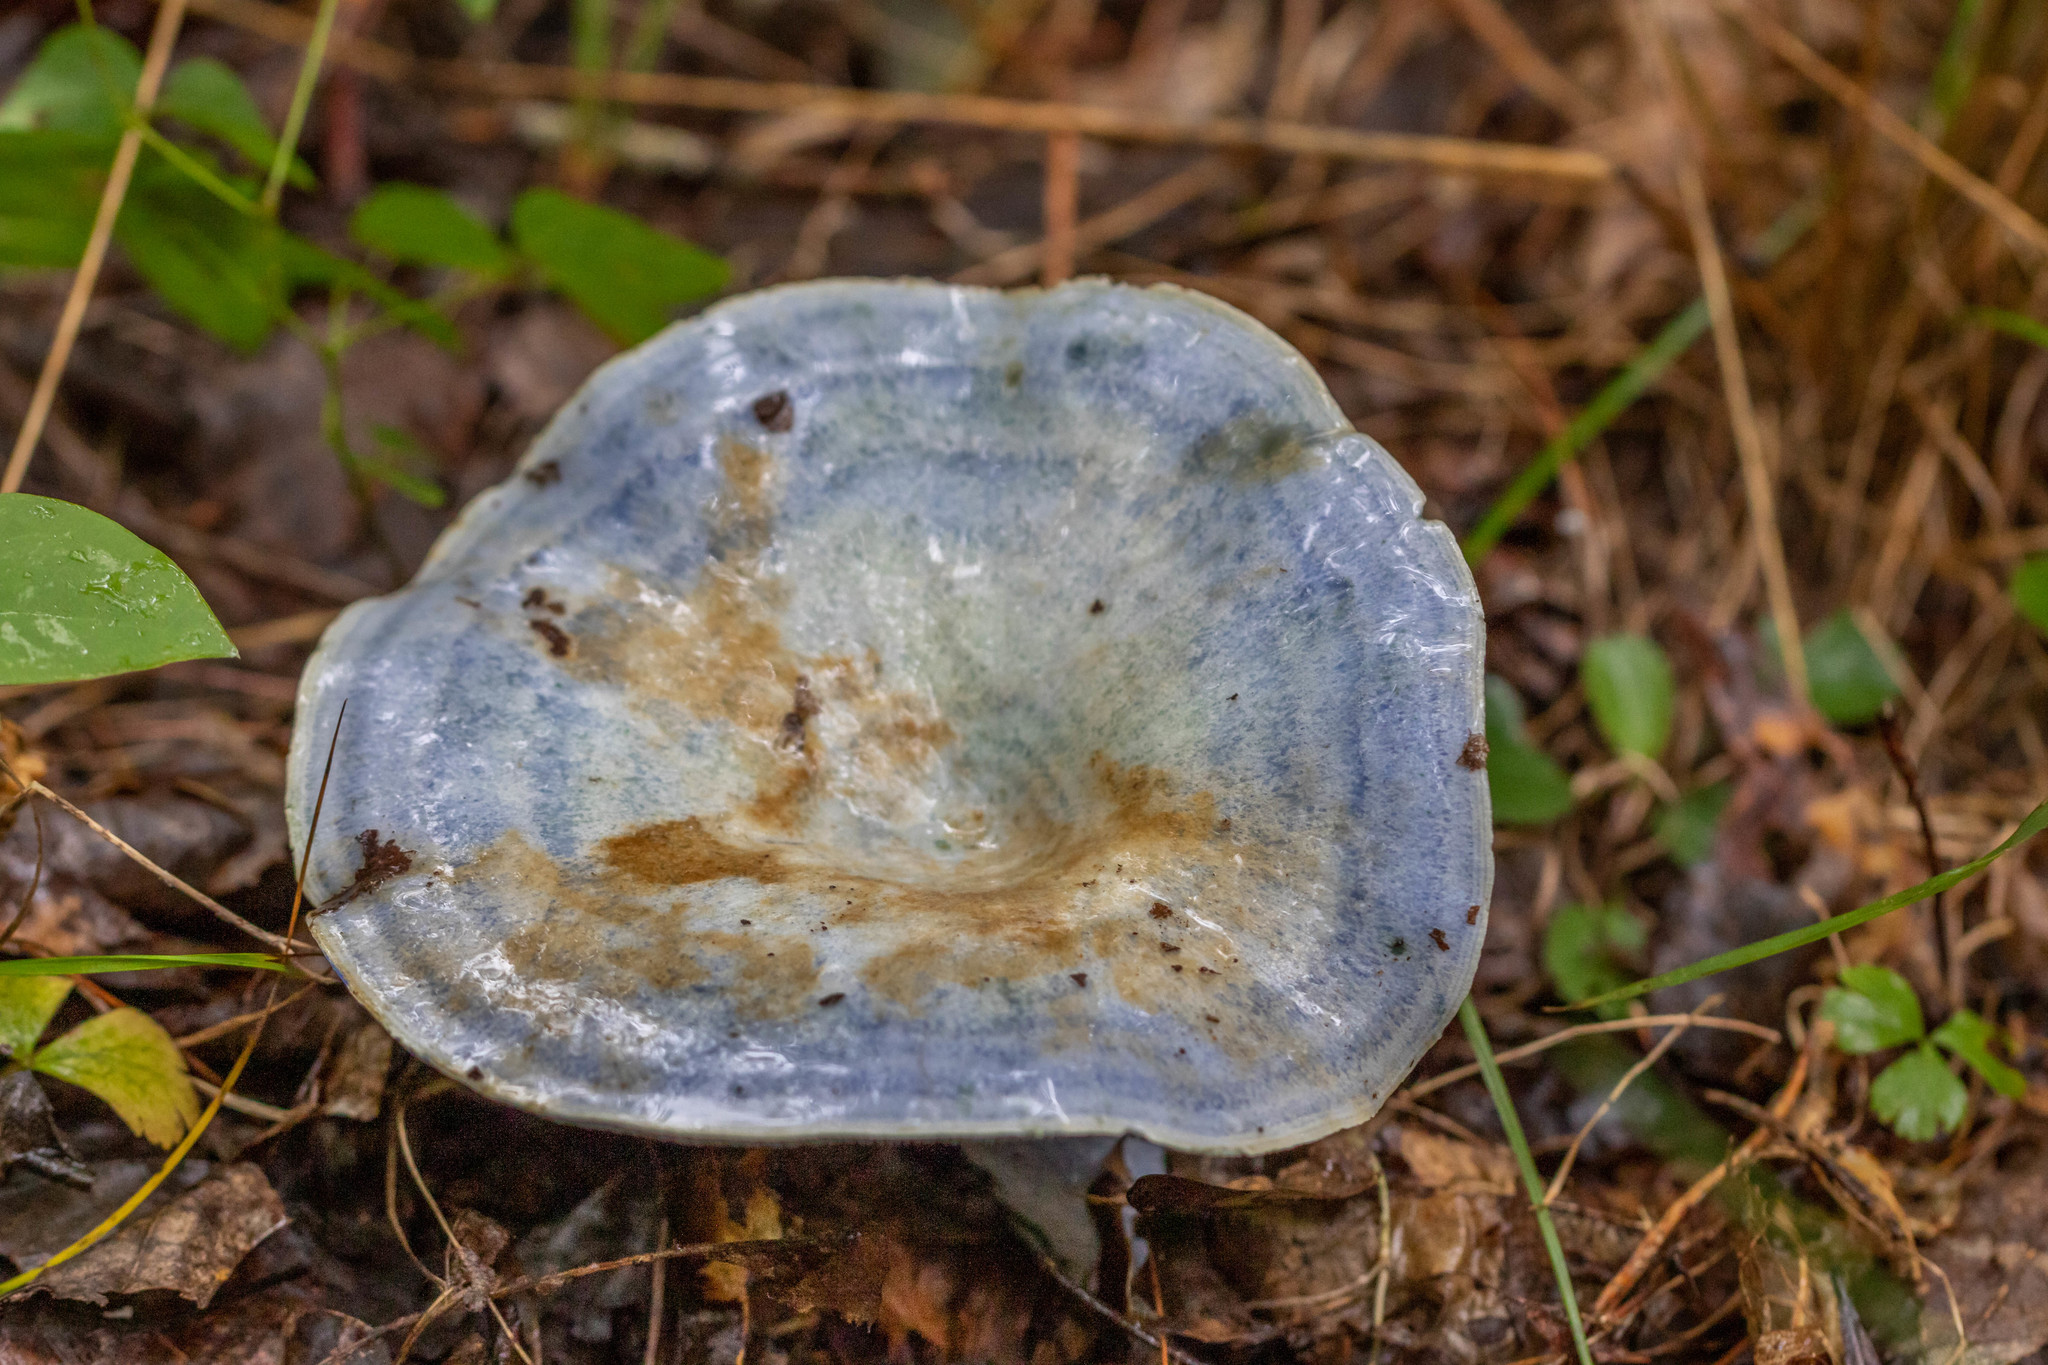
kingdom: Fungi
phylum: Basidiomycota
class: Agaricomycetes
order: Russulales
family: Russulaceae
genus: Lactarius
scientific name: Lactarius indigo
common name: Indigo milk cap
